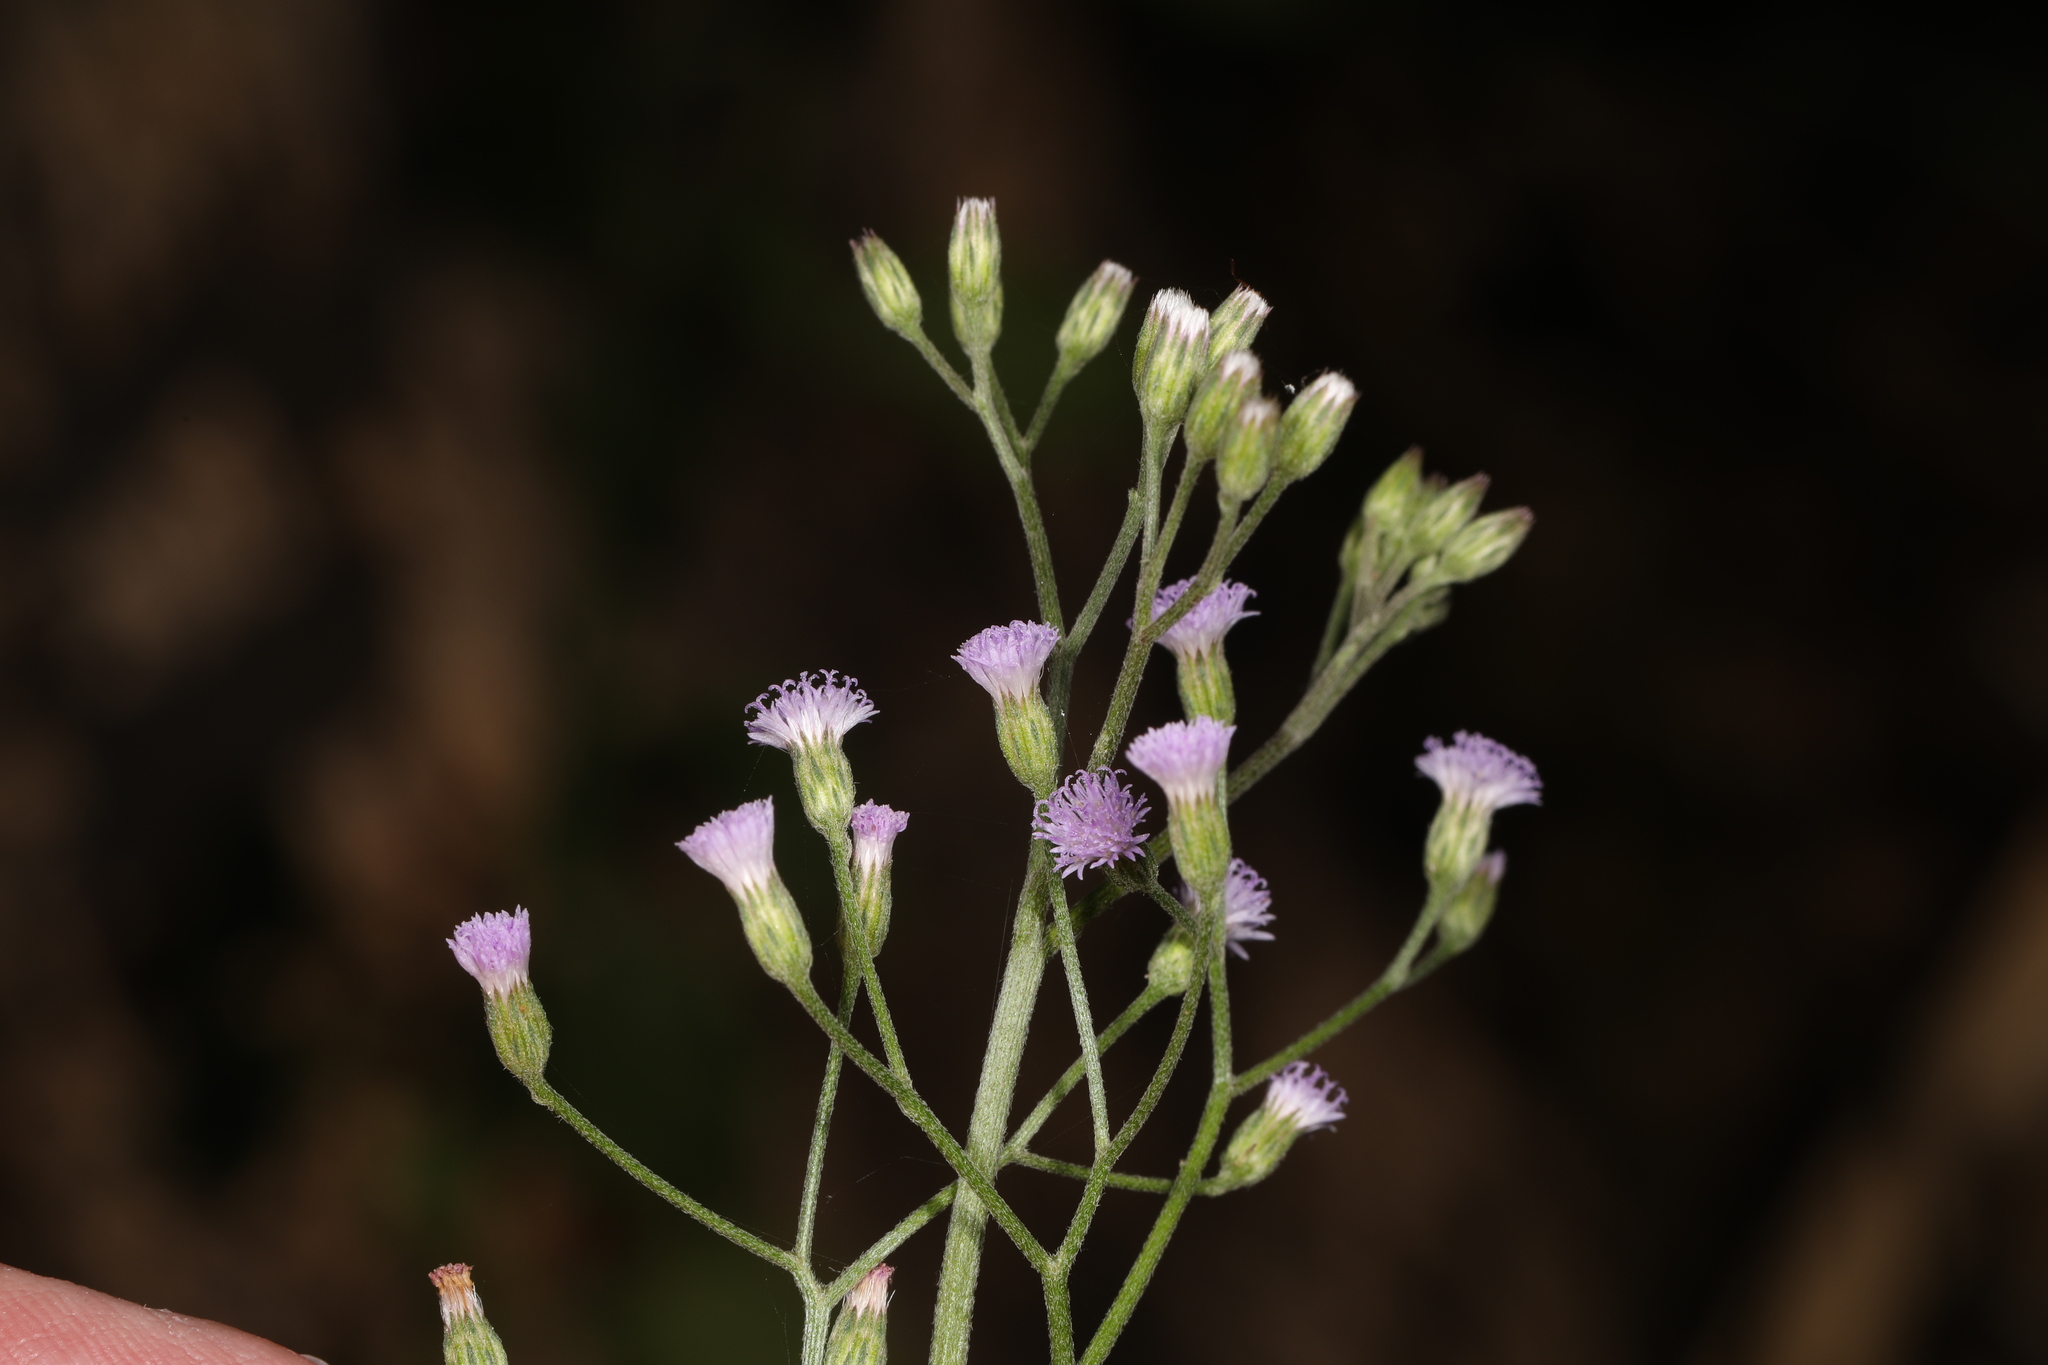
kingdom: Plantae
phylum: Tracheophyta
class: Magnoliopsida
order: Asterales
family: Asteraceae
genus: Cyanthillium
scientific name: Cyanthillium cinereum
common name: Little ironweed
